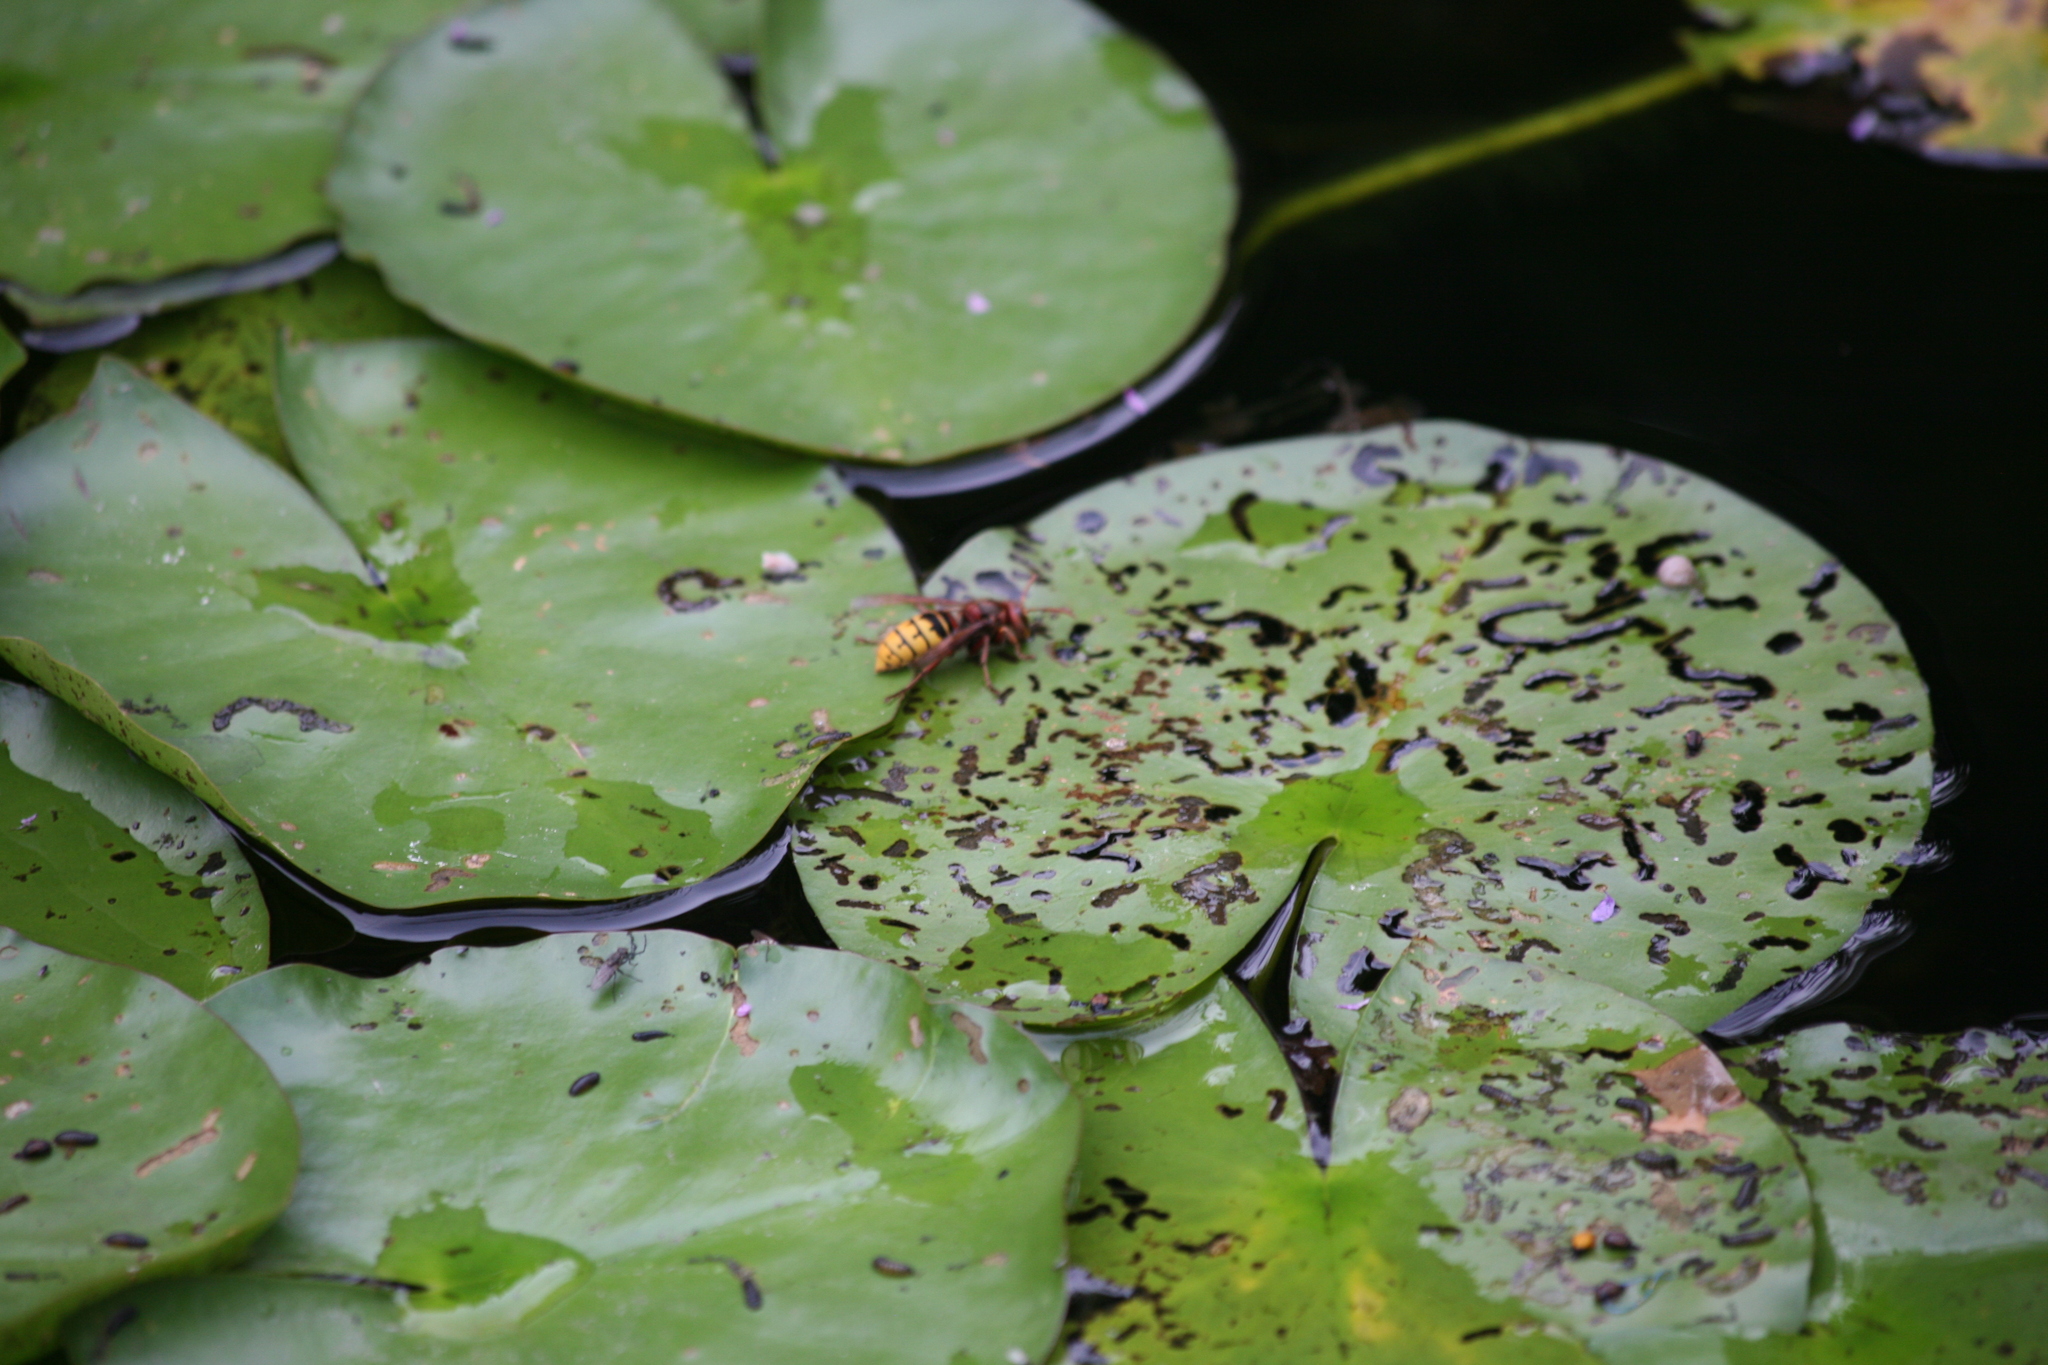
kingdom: Animalia
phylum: Arthropoda
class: Insecta
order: Hymenoptera
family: Vespidae
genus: Vespa
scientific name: Vespa crabro
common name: Hornet
